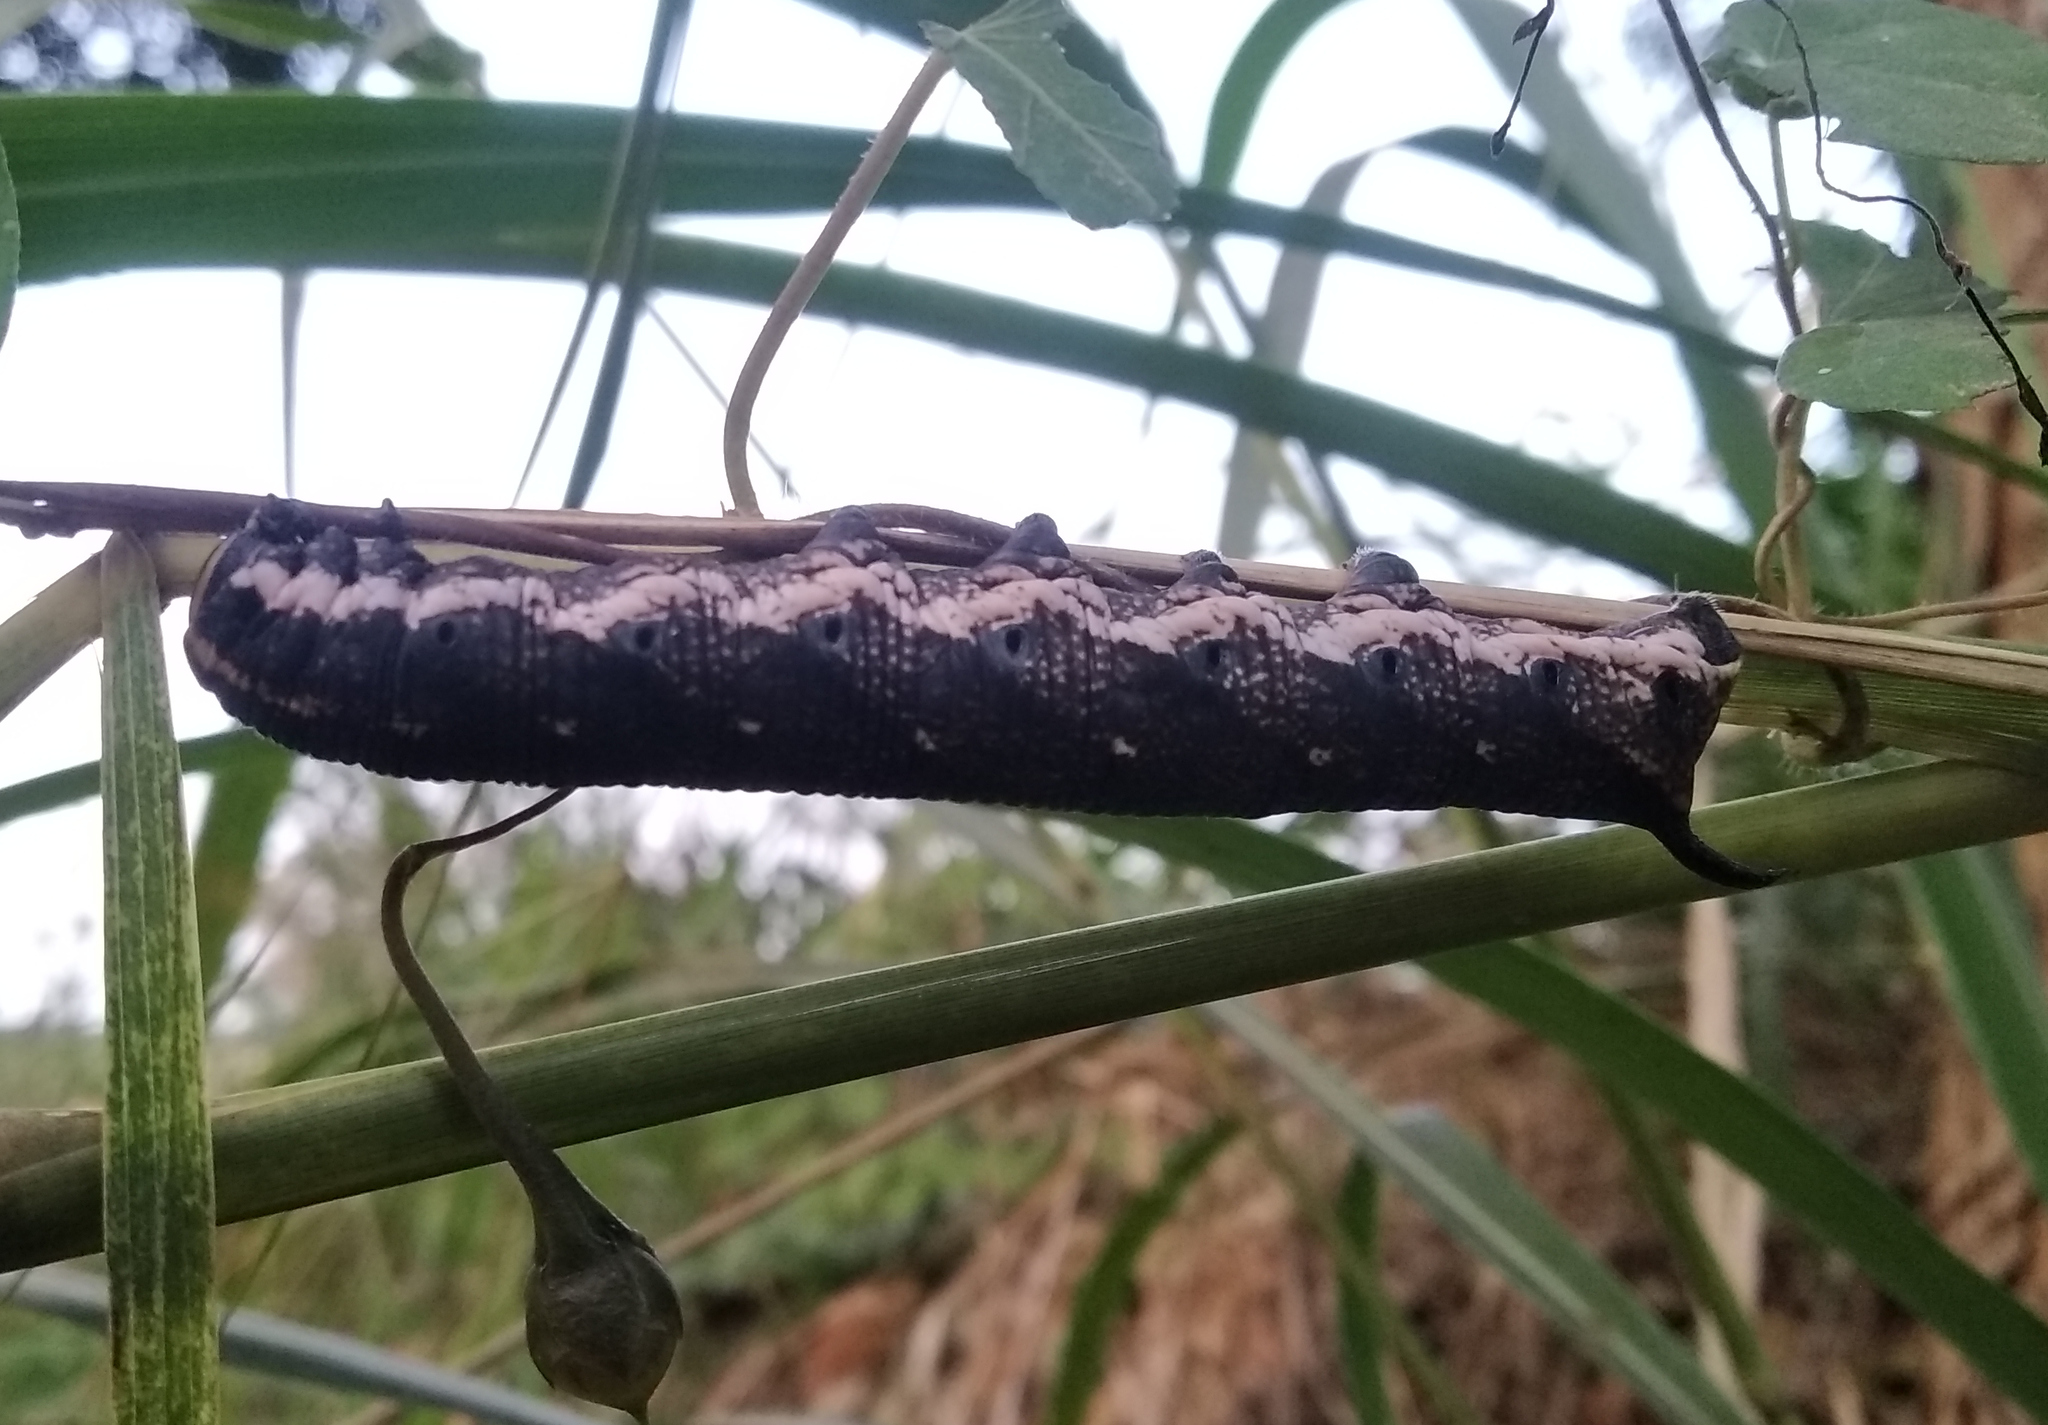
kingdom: Animalia
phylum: Arthropoda
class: Insecta
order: Lepidoptera
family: Sphingidae
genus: Agrius
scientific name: Agrius convolvuli
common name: Convolvulus hawkmoth
